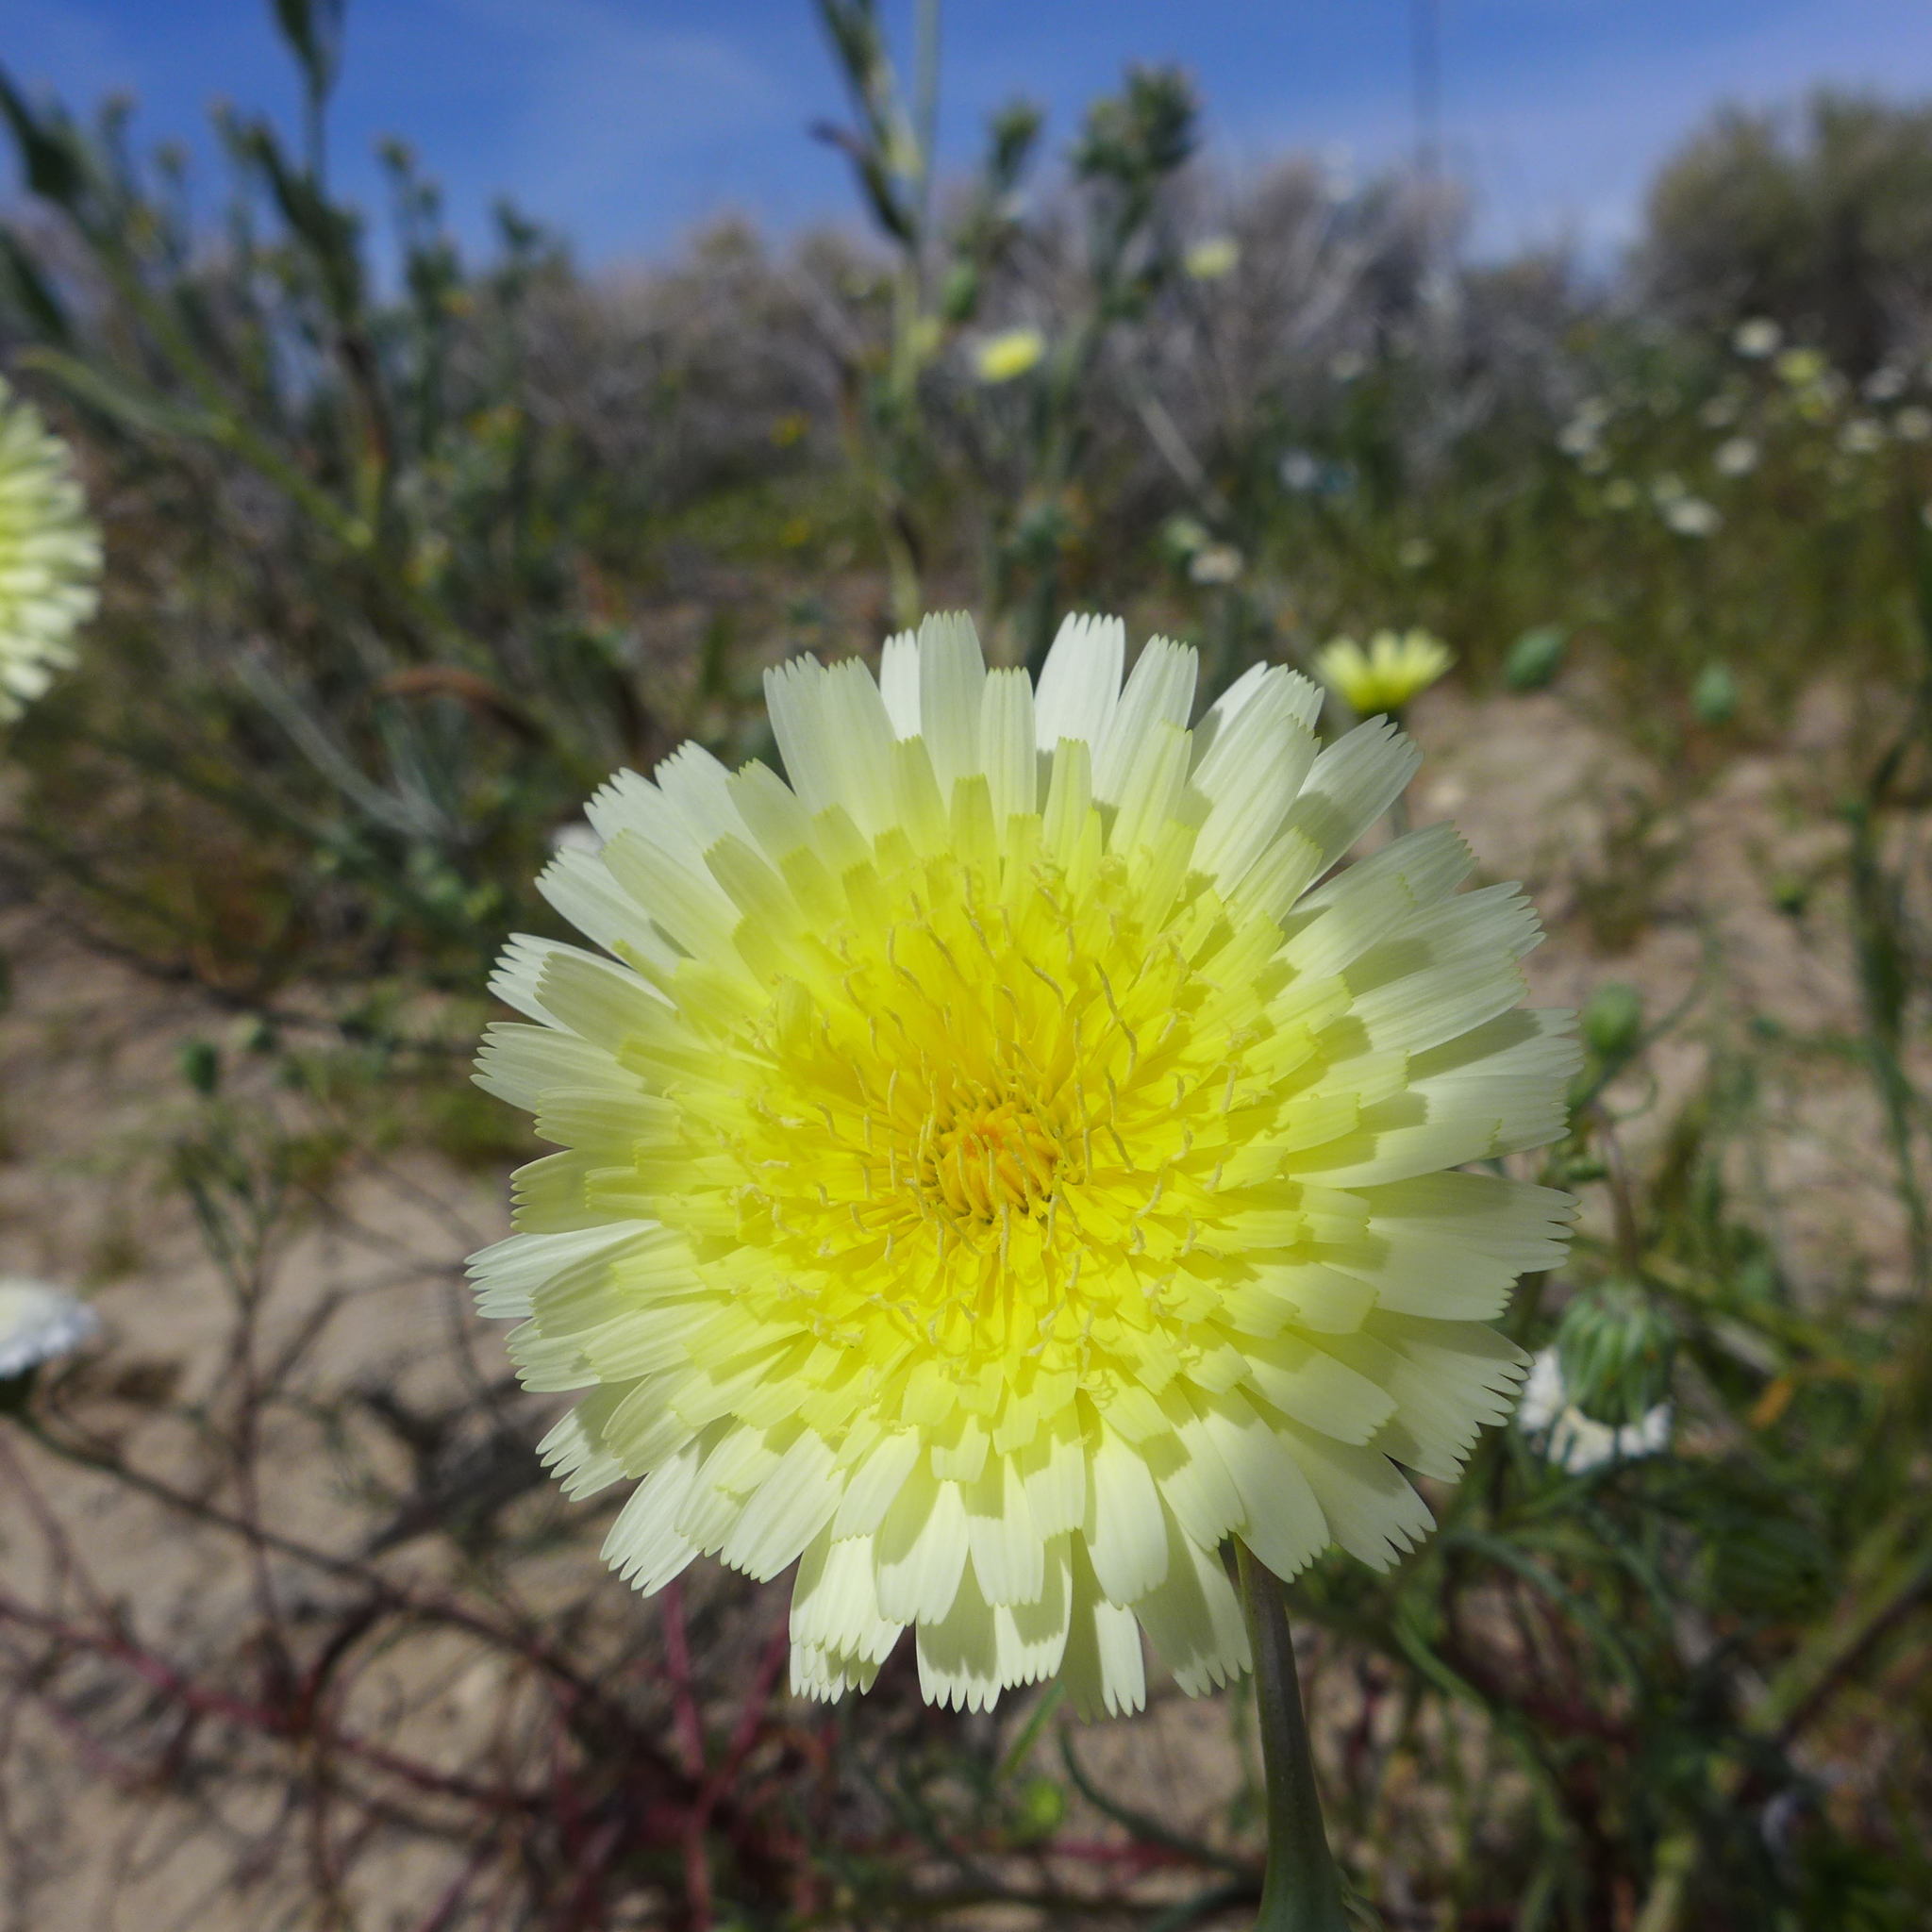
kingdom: Plantae
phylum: Tracheophyta
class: Magnoliopsida
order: Asterales
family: Asteraceae
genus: Malacothrix
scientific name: Malacothrix glabrata
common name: Smooth desert-dandelion
